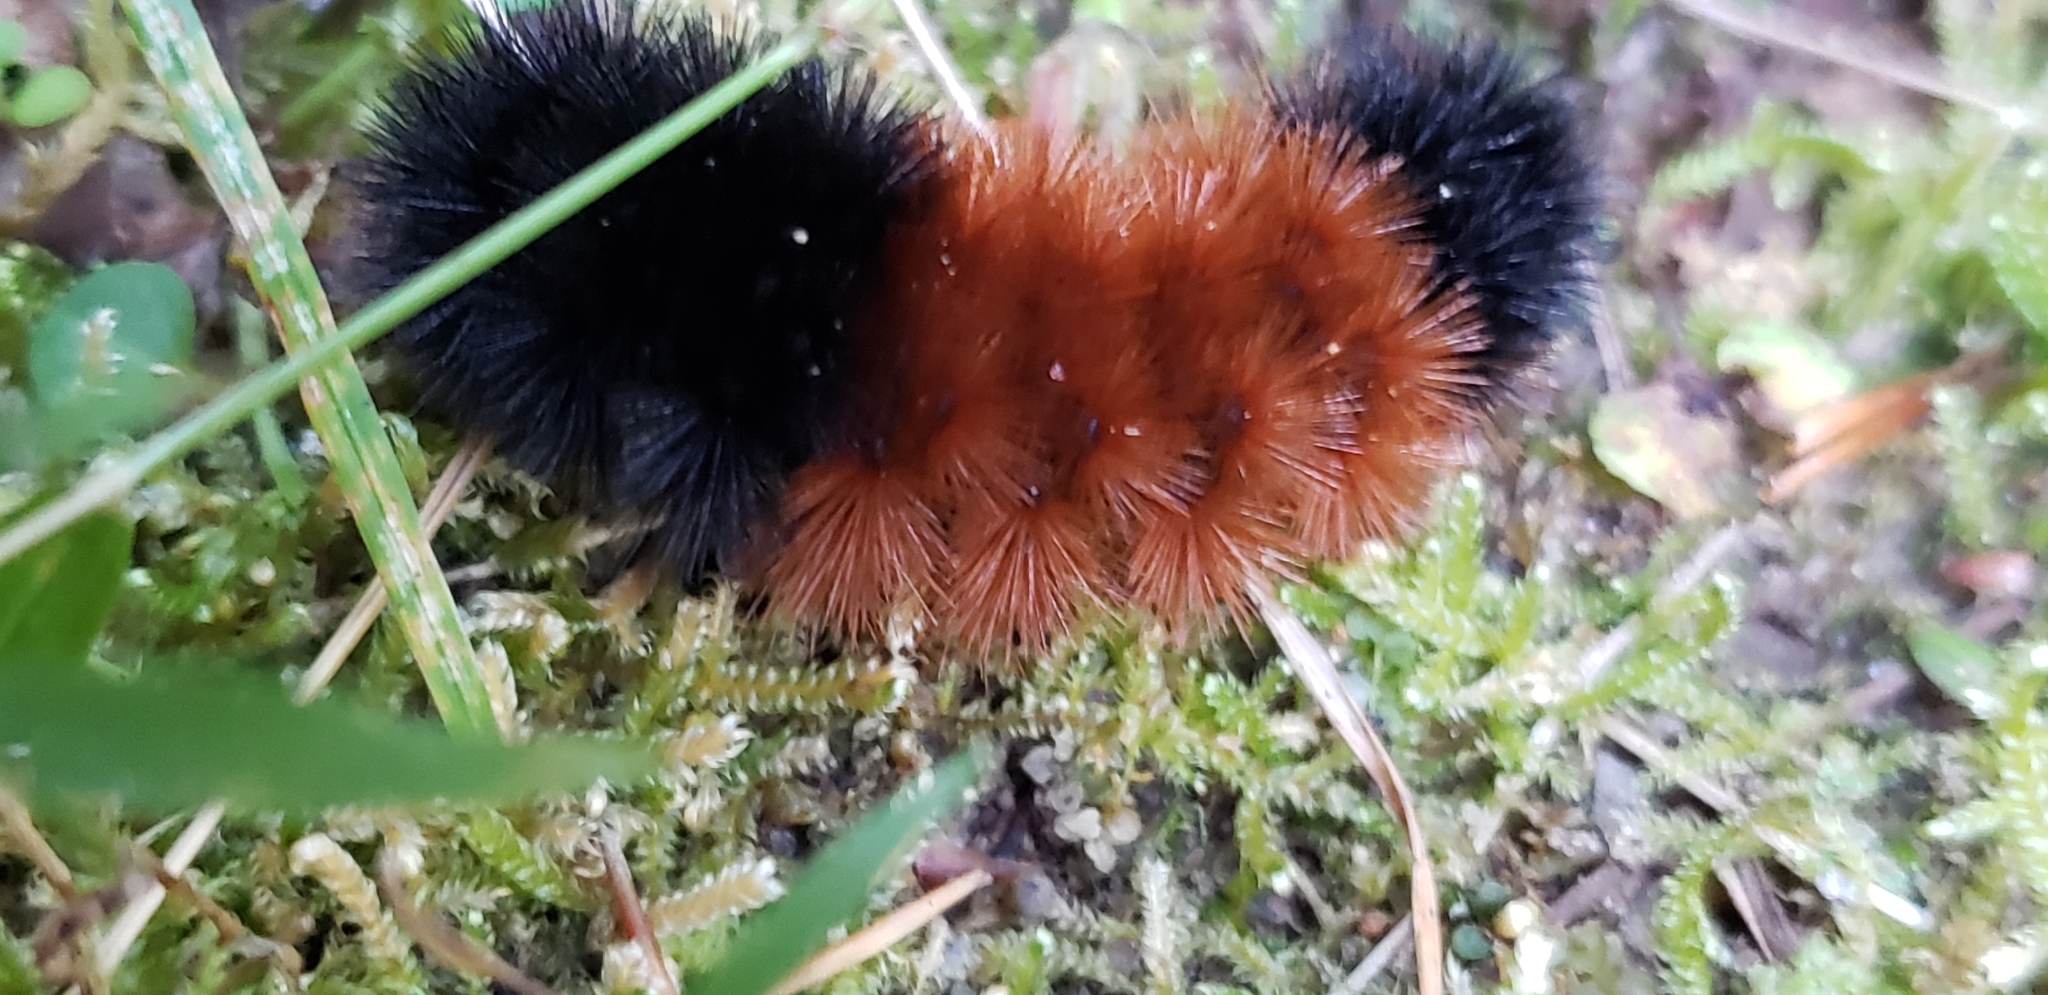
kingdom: Animalia
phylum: Arthropoda
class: Insecta
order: Lepidoptera
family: Erebidae
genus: Pyrrharctia
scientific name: Pyrrharctia isabella
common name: Isabella tiger moth
